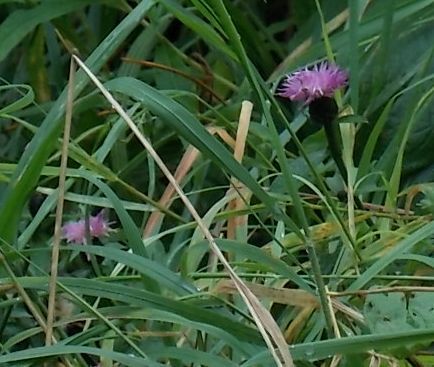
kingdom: Plantae
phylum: Tracheophyta
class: Magnoliopsida
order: Asterales
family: Asteraceae
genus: Centaurea
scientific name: Centaurea nigra
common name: Lesser knapweed
